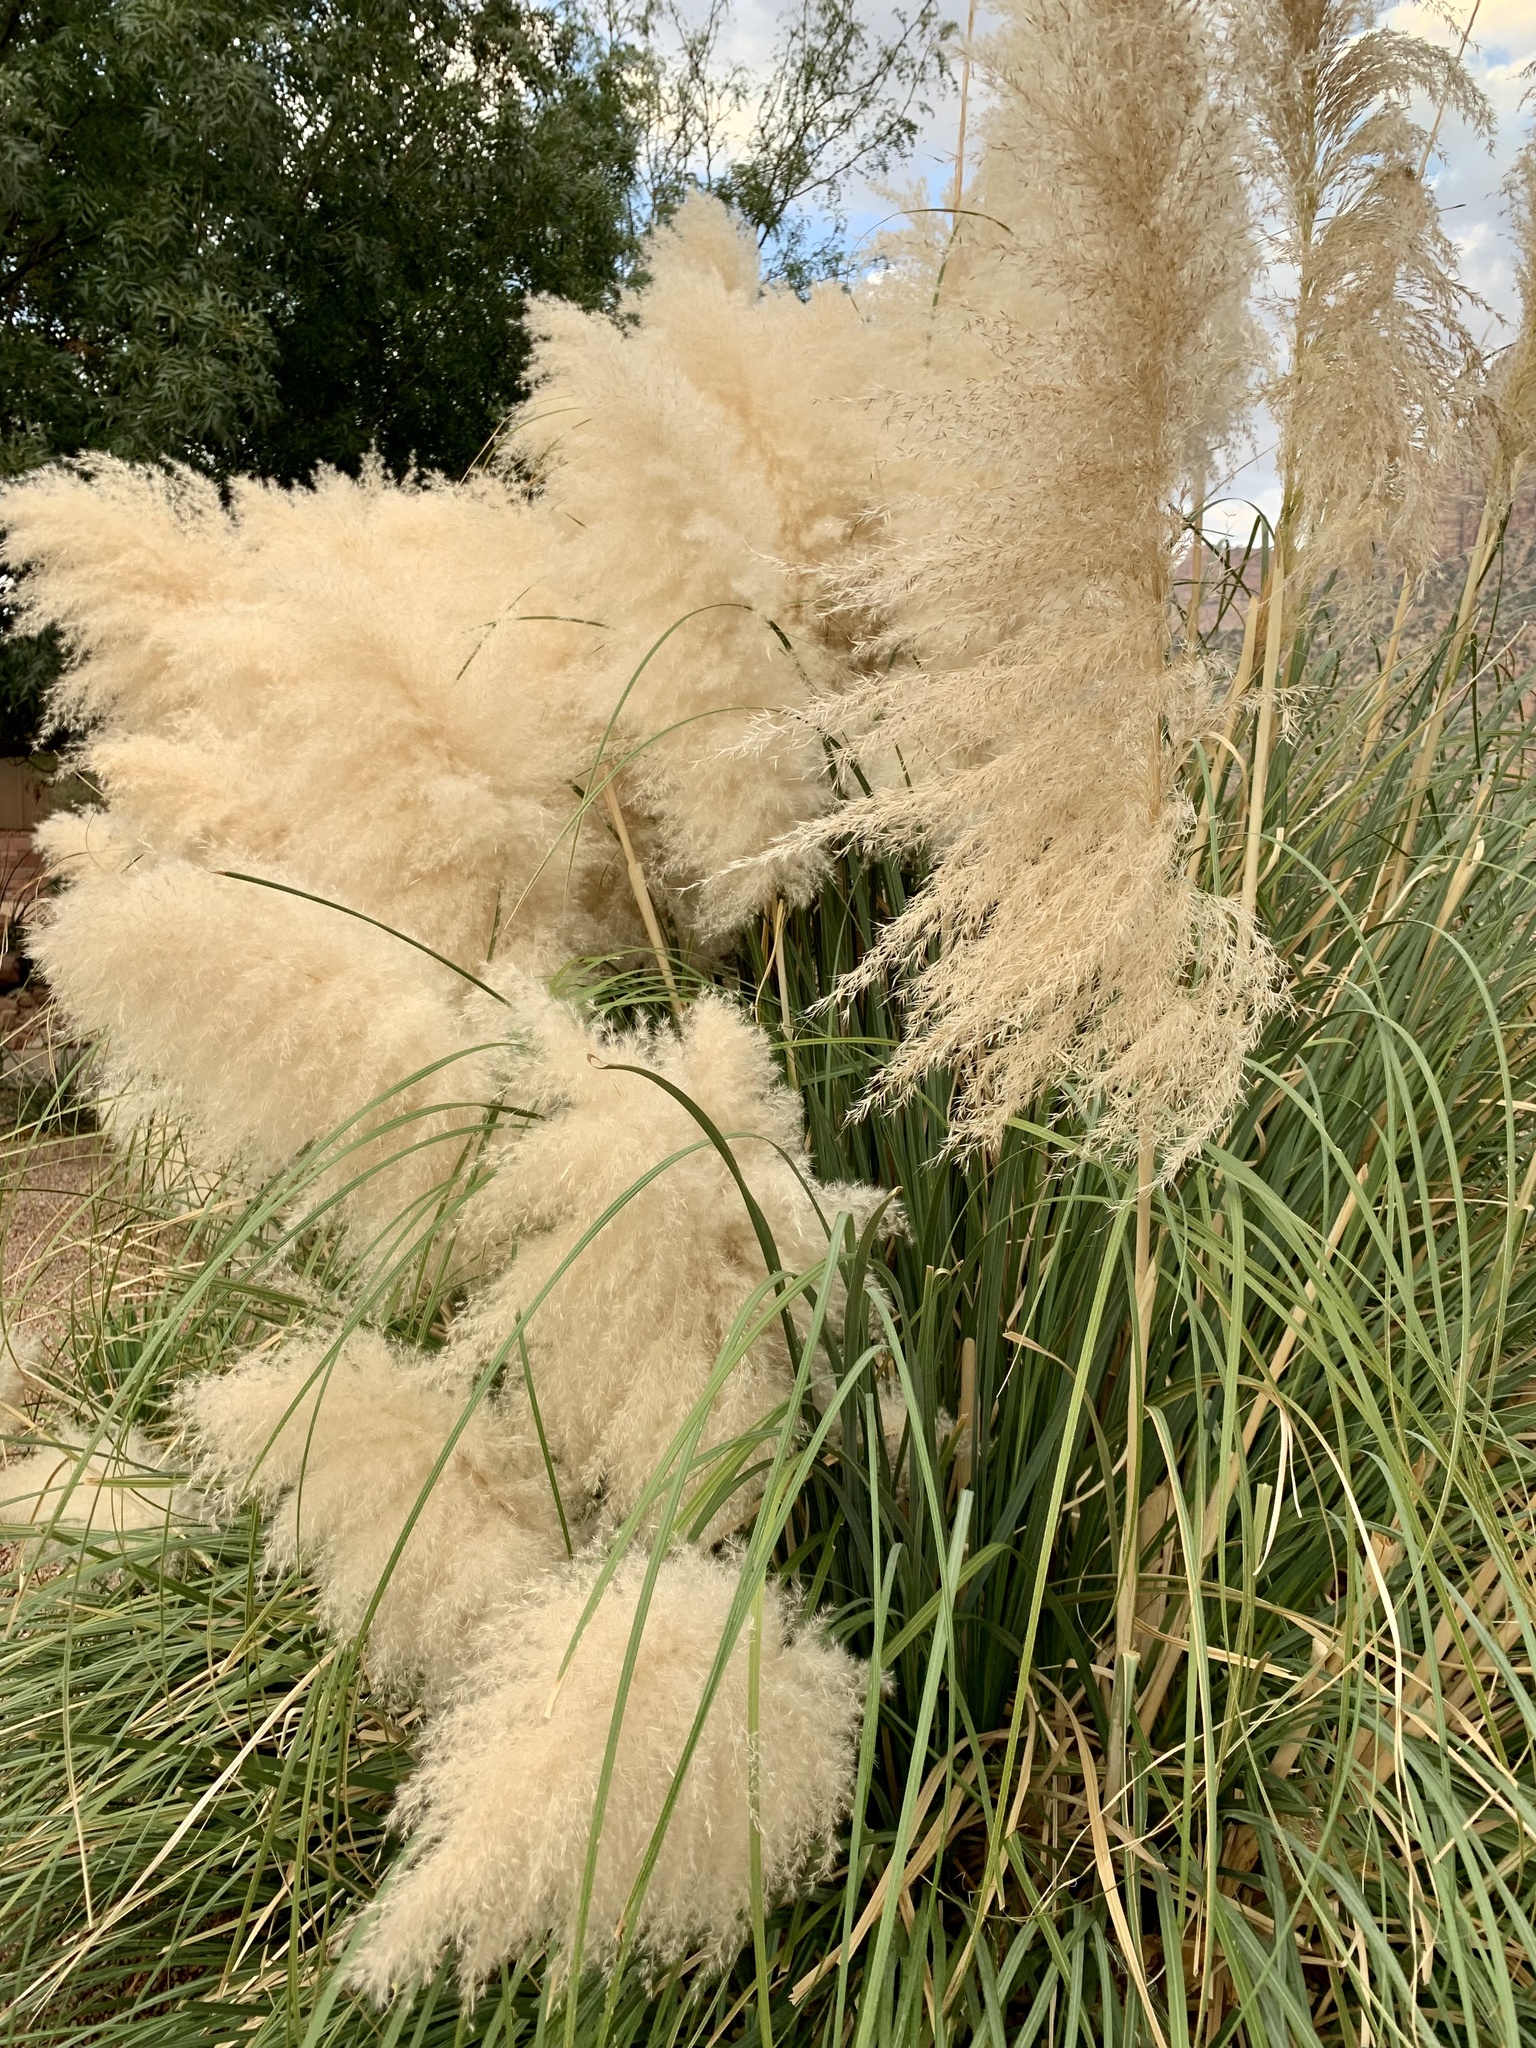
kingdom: Plantae
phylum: Tracheophyta
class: Liliopsida
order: Poales
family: Poaceae
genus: Cortaderia
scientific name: Cortaderia selloana
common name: Uruguayan pampas grass
